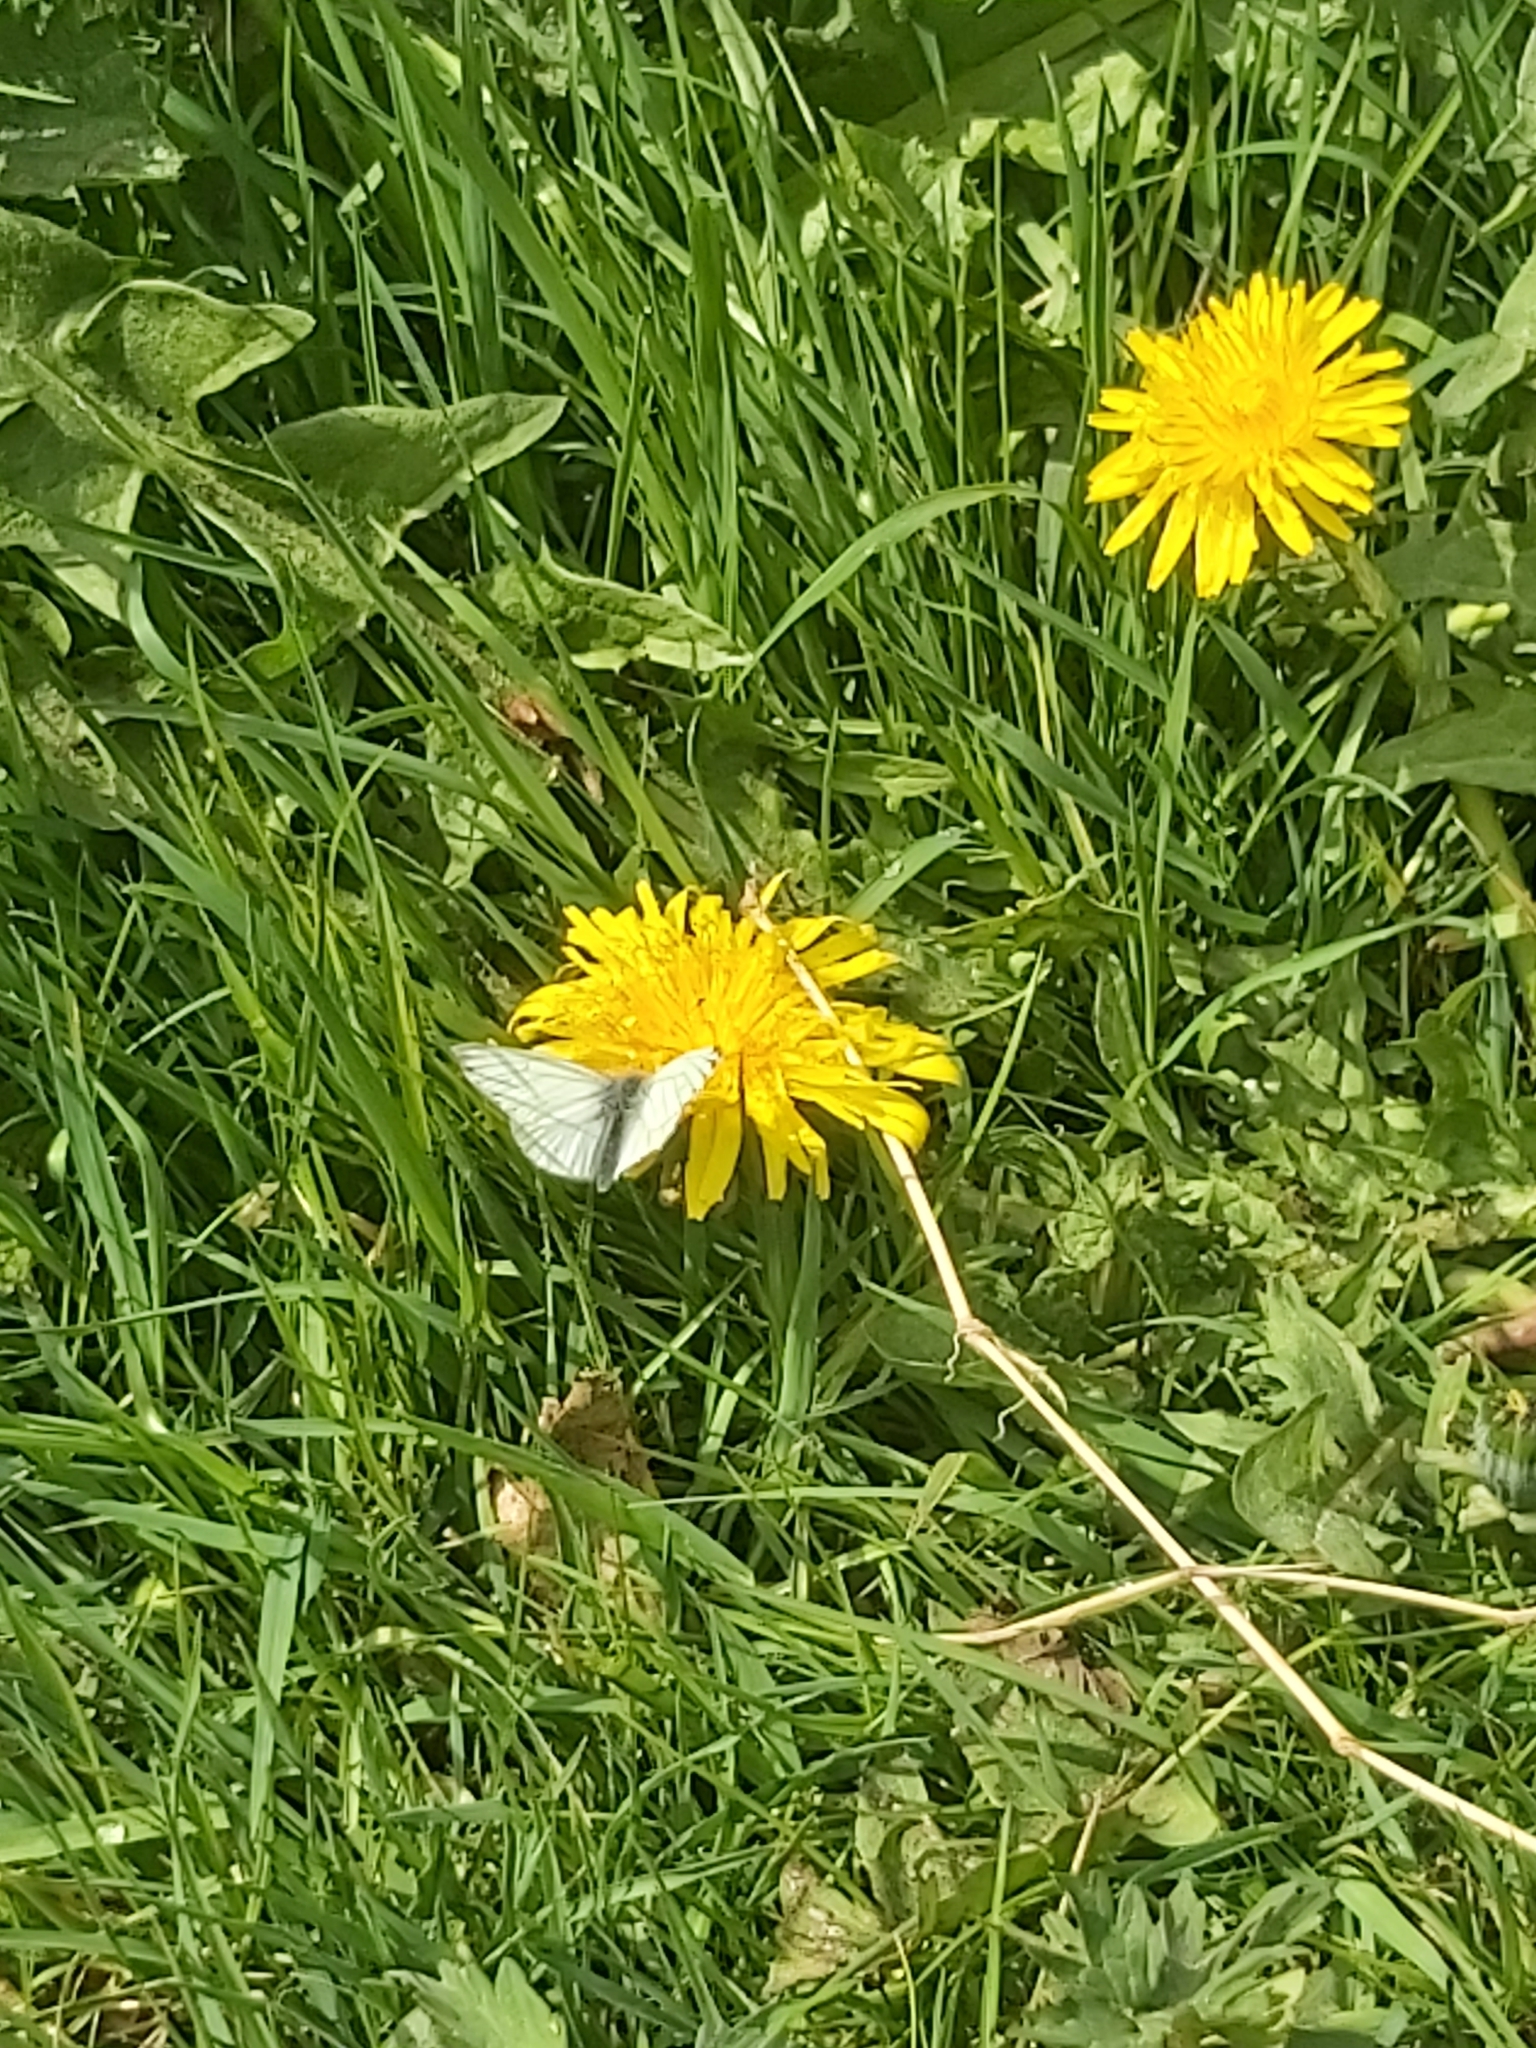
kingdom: Animalia
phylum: Arthropoda
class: Insecta
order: Lepidoptera
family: Pieridae
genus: Pieris
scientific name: Pieris napi
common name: Green-veined white
